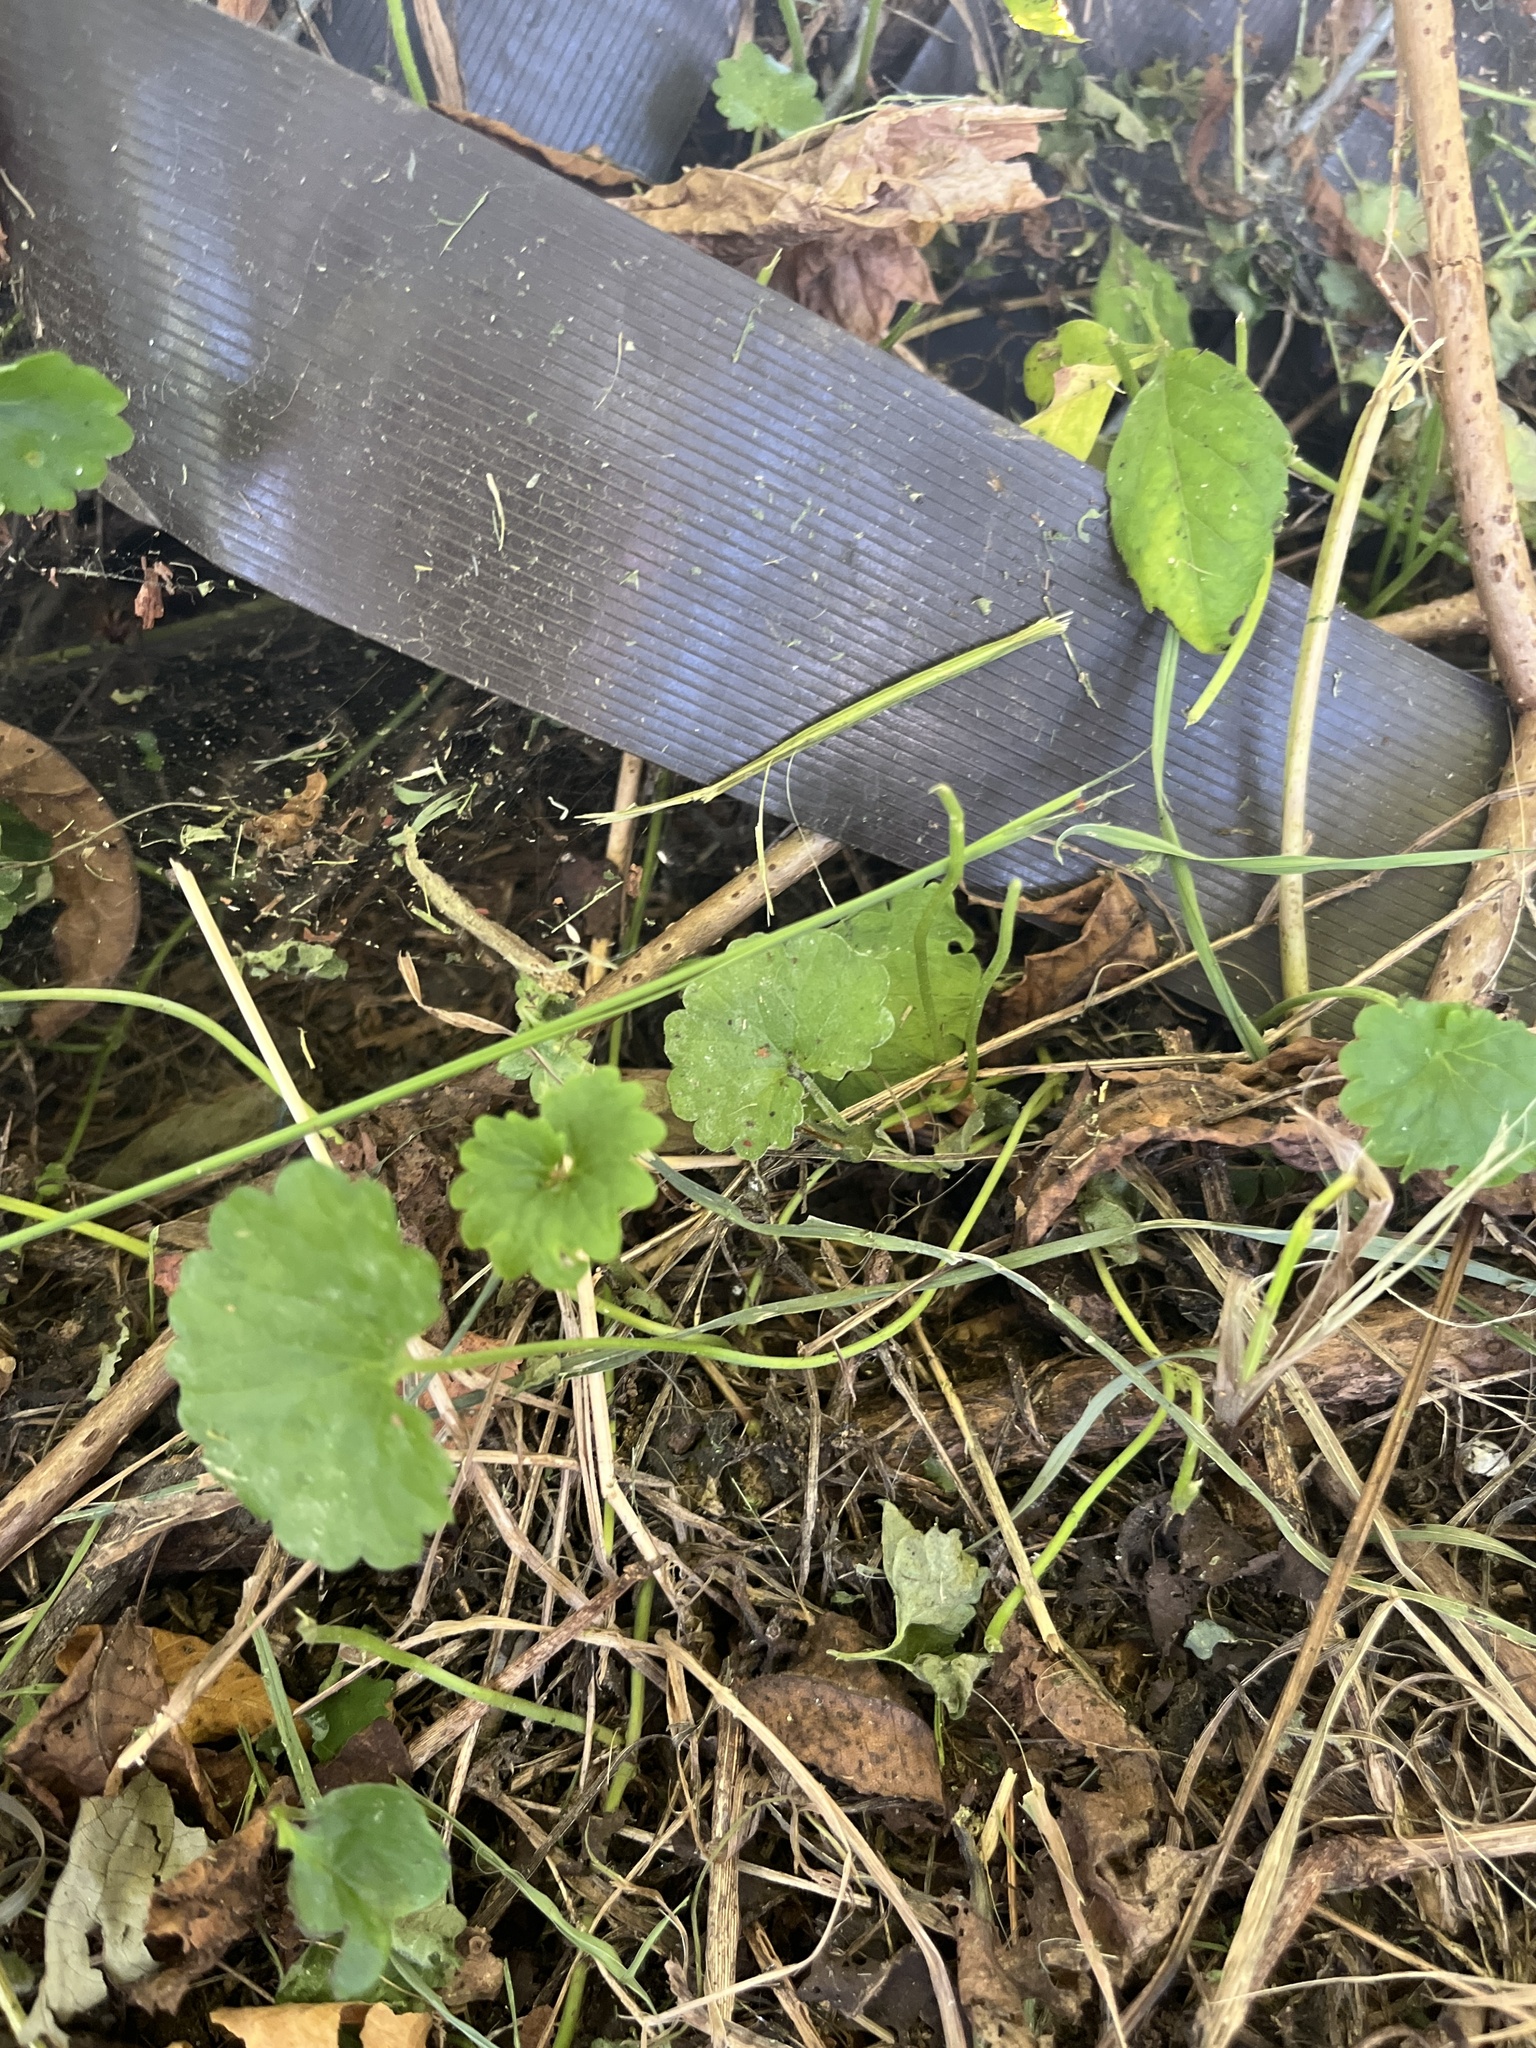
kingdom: Plantae
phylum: Tracheophyta
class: Magnoliopsida
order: Lamiales
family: Lamiaceae
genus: Glechoma
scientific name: Glechoma hederacea
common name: Ground ivy
